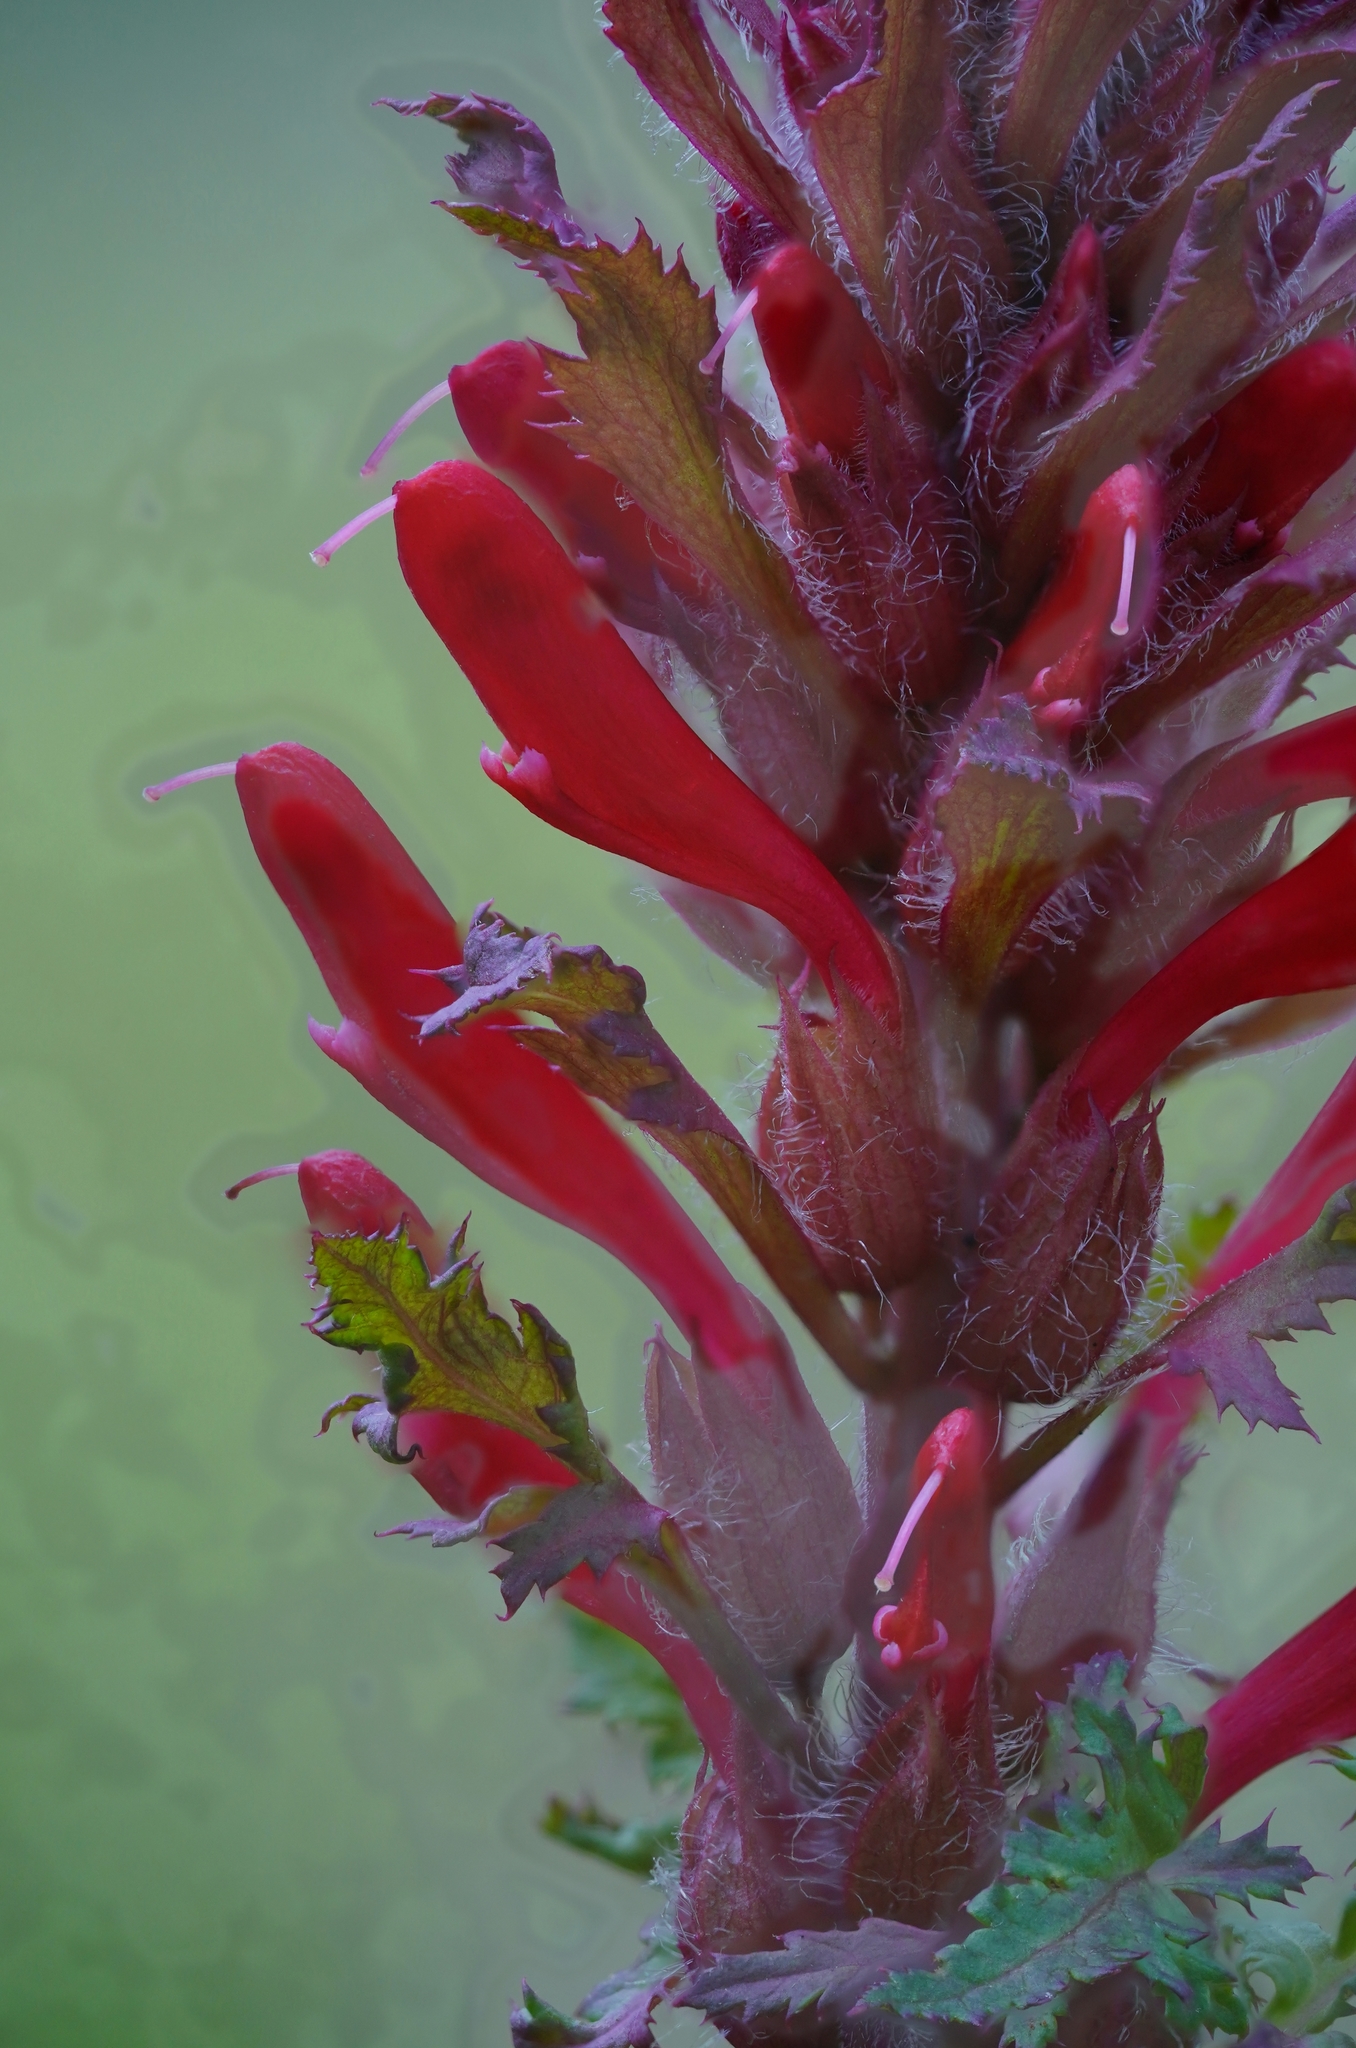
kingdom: Plantae
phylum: Tracheophyta
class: Magnoliopsida
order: Lamiales
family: Orobanchaceae
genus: Pedicularis
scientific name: Pedicularis densiflora
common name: Indian warrior
